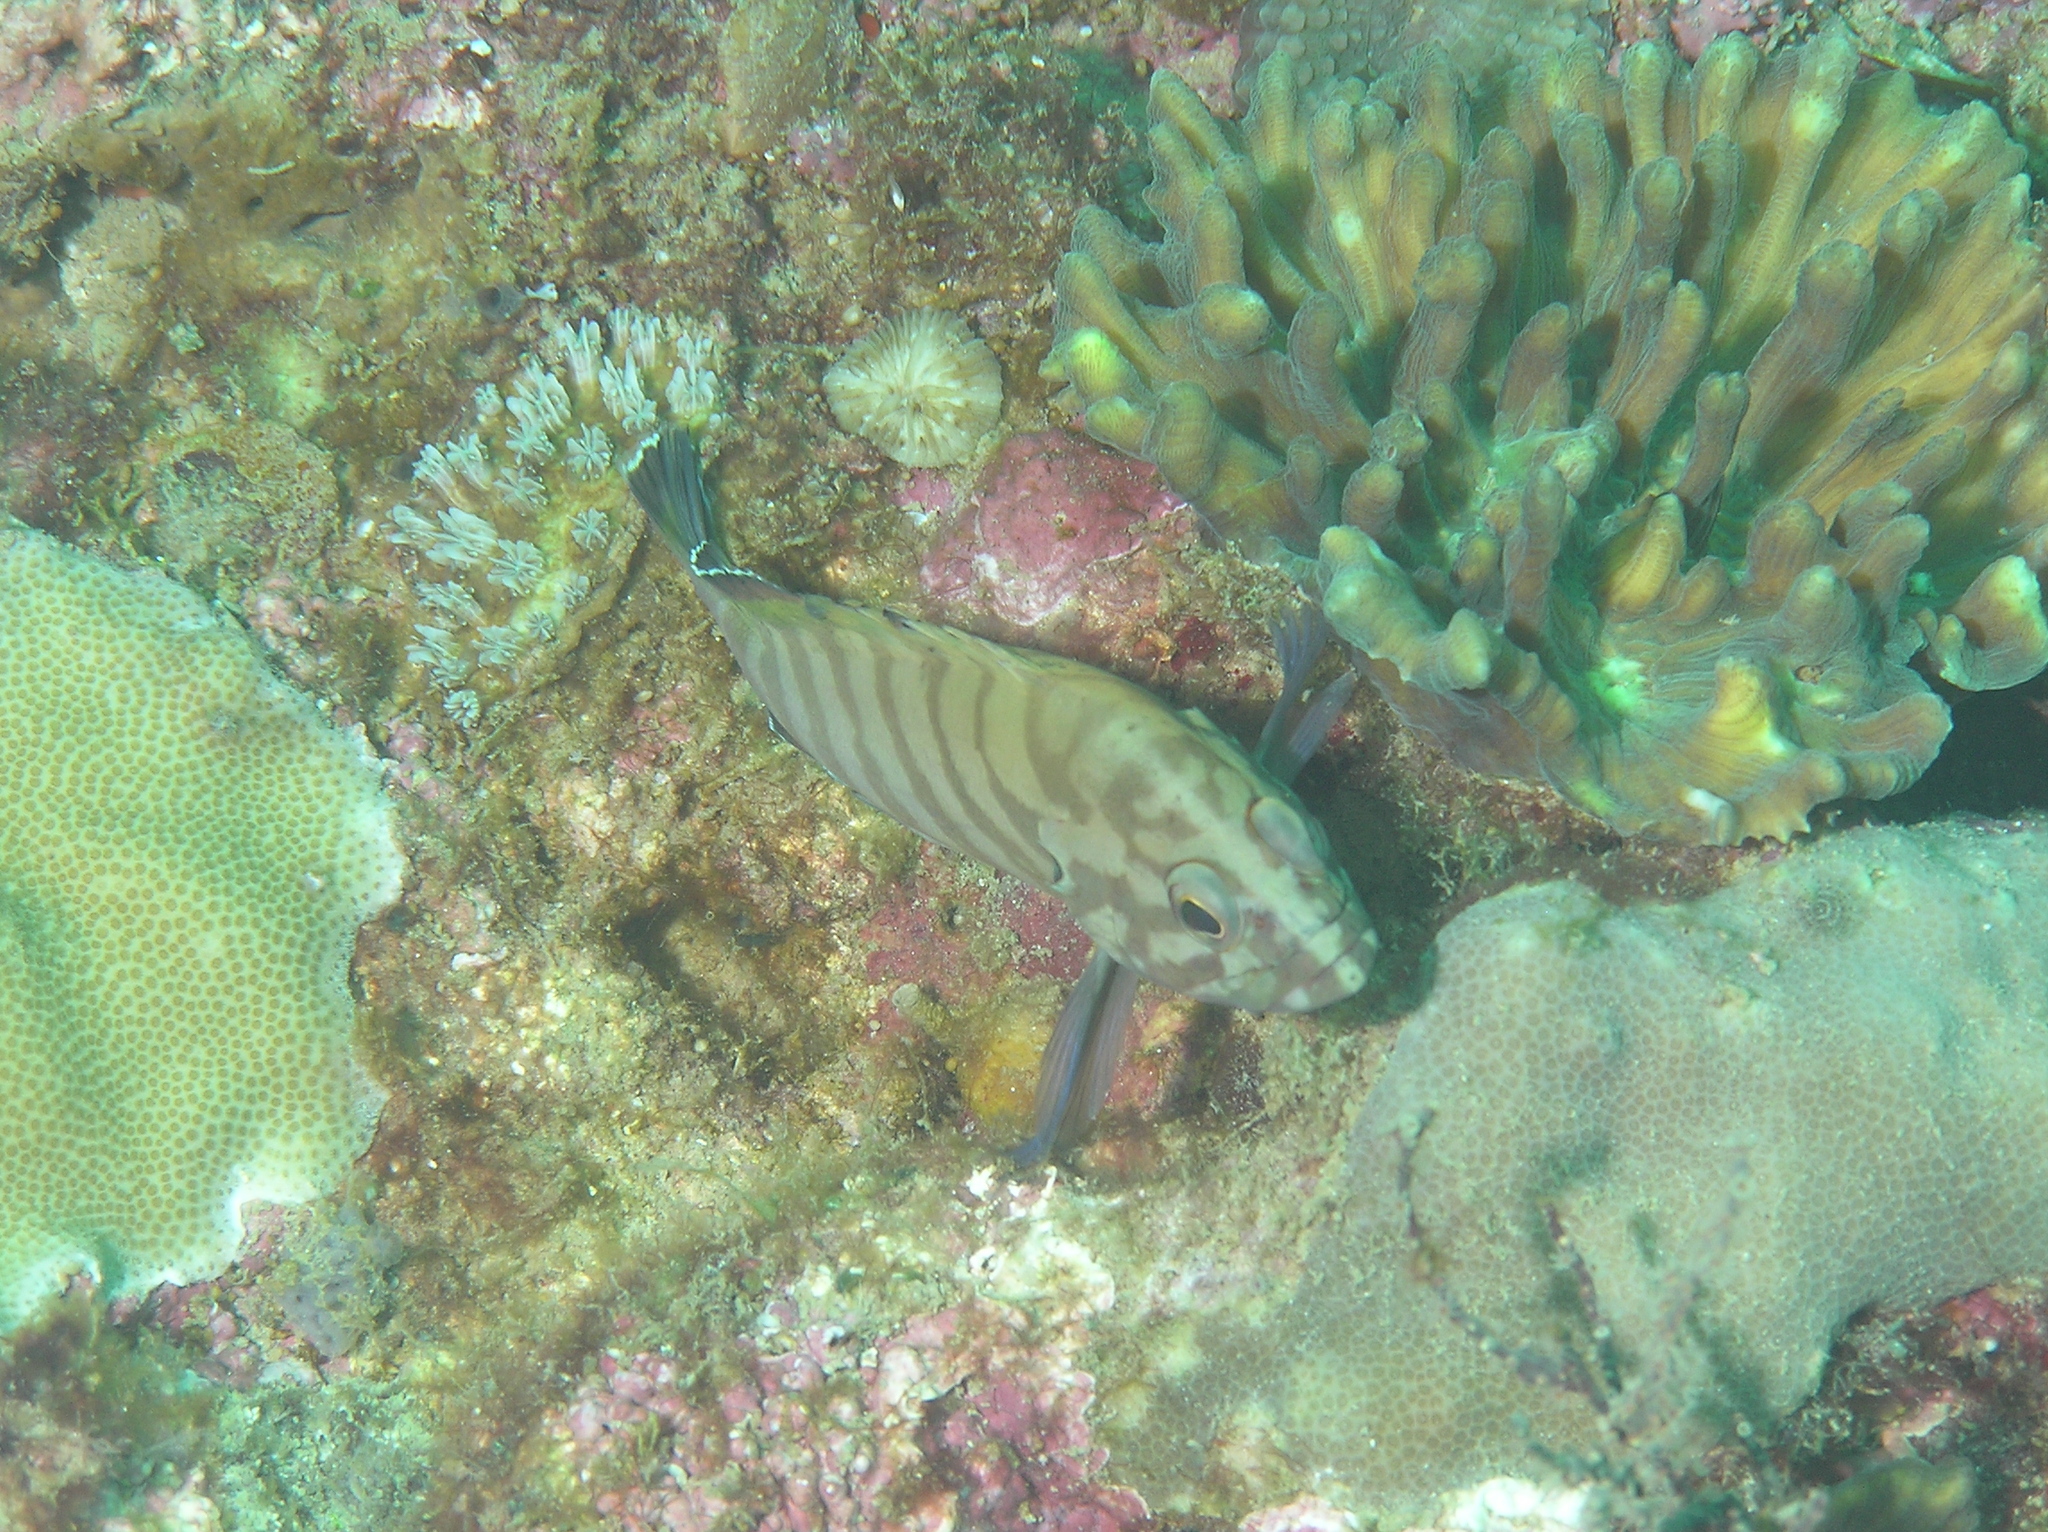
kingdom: Animalia
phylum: Chordata
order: Perciformes
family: Serranidae
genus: Cephalopholis
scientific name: Cephalopholis boenak
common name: Chocolate hind
